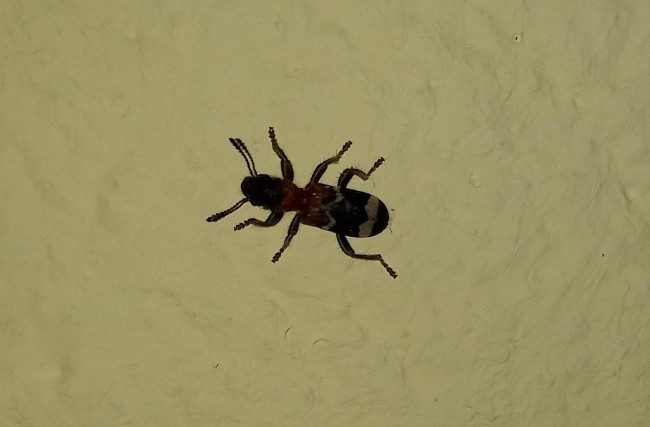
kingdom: Animalia
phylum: Arthropoda
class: Insecta
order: Coleoptera
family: Cleridae
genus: Thanasimus
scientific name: Thanasimus formicarius
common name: Ant beetle
